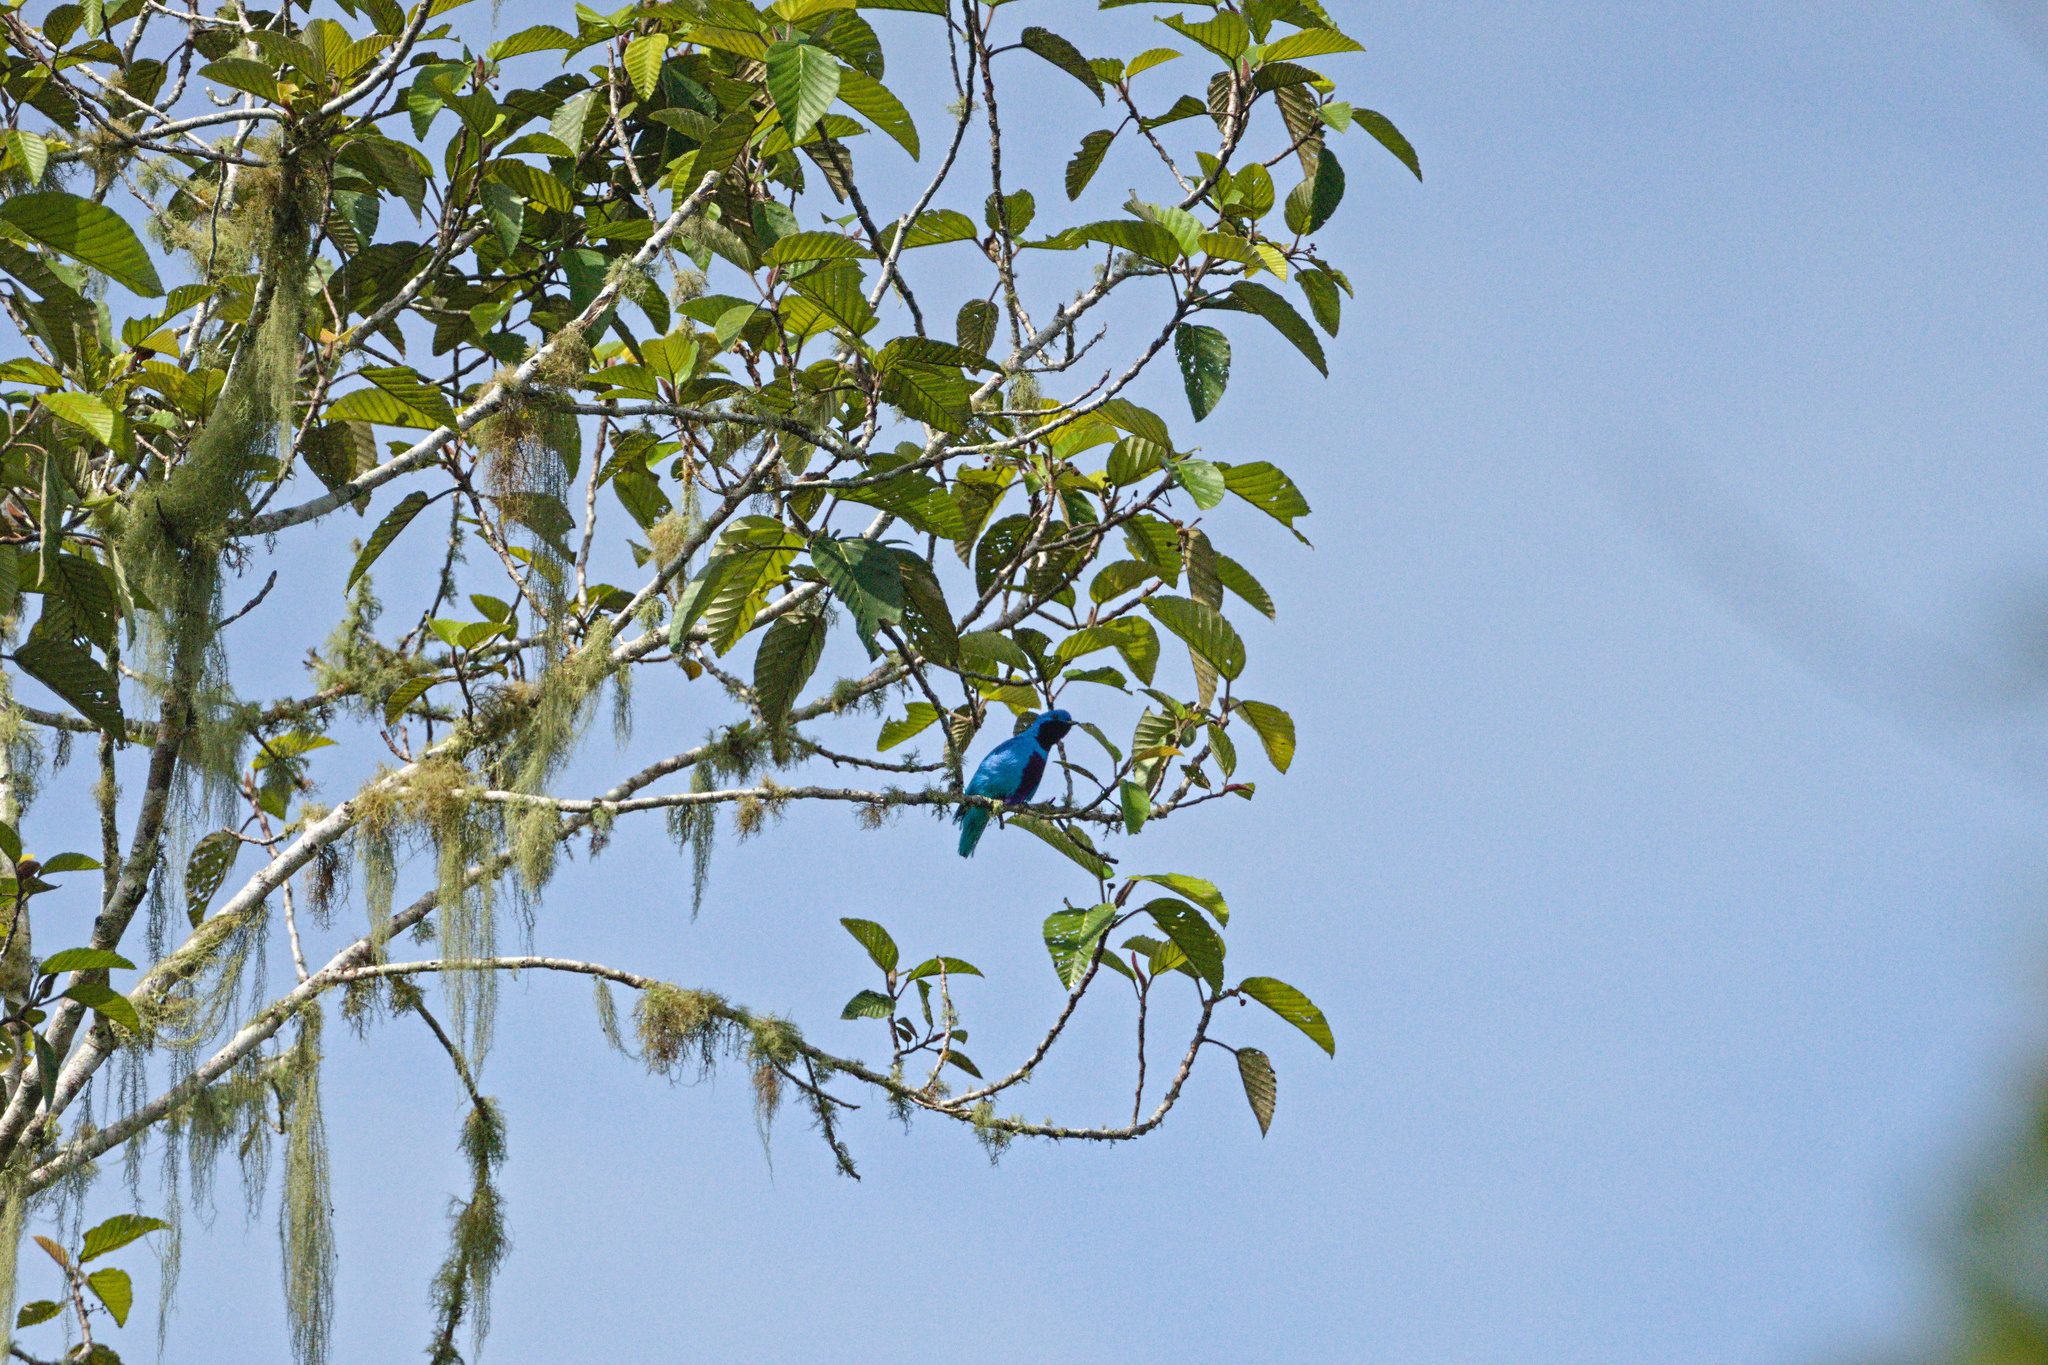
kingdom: Animalia
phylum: Chordata
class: Aves
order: Passeriformes
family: Cotingidae
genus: Cotinga
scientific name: Cotinga amabilis
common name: Lovely cotinga
